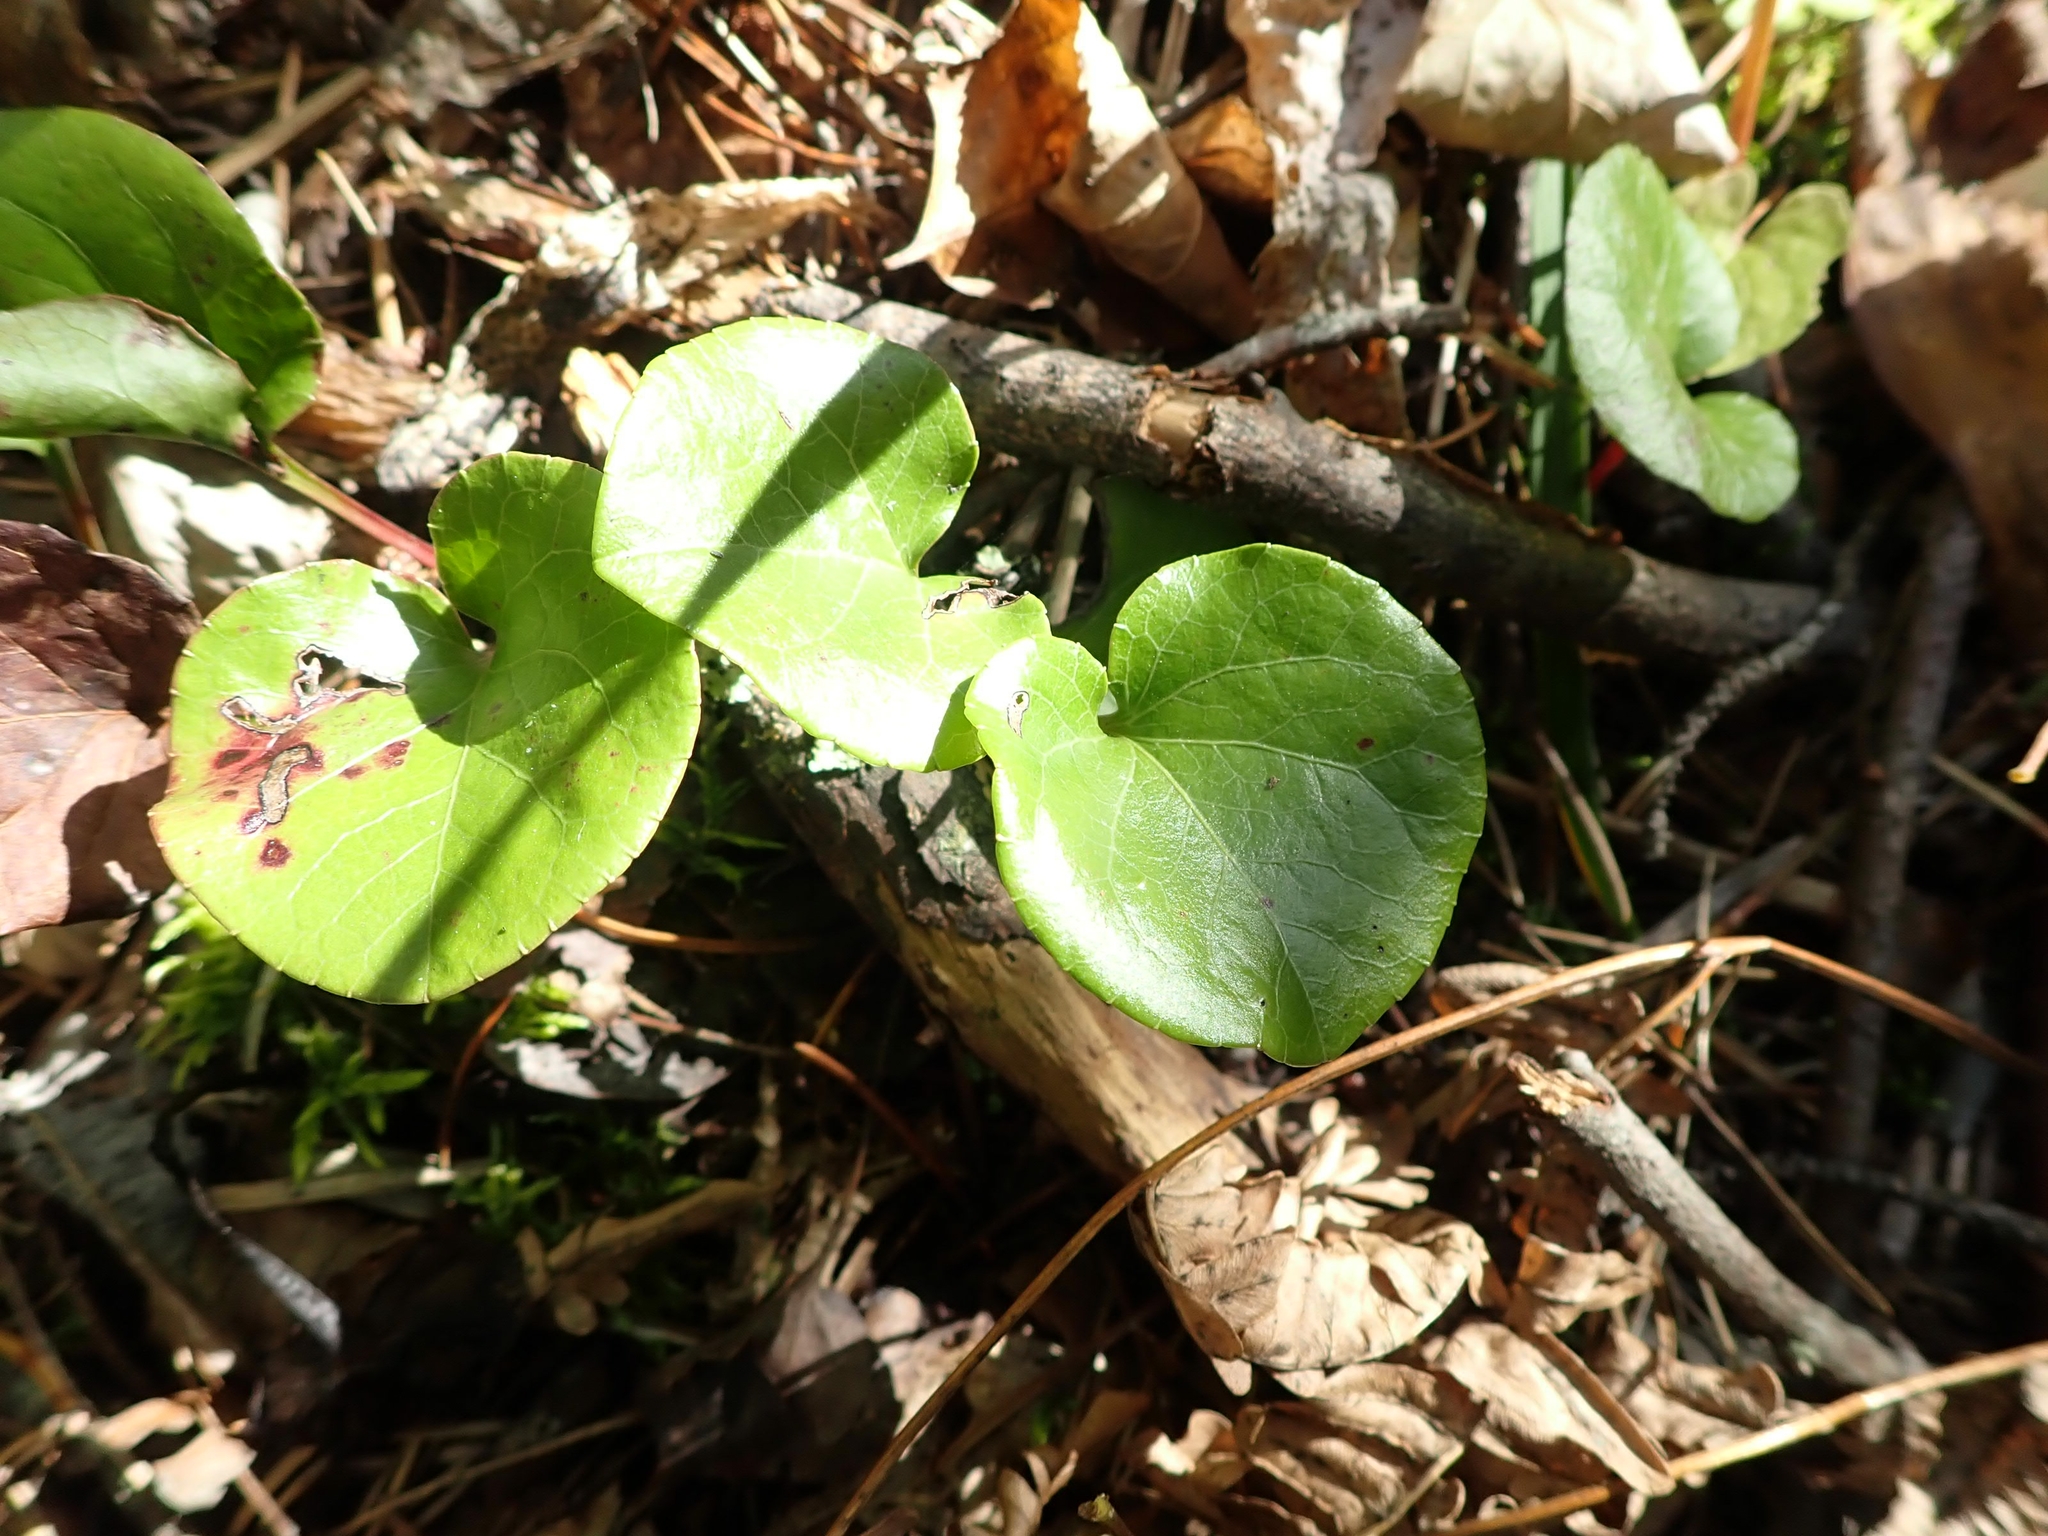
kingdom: Plantae
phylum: Tracheophyta
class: Magnoliopsida
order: Ericales
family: Ericaceae
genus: Pyrola
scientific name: Pyrola asarifolia
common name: Bog wintergreen
